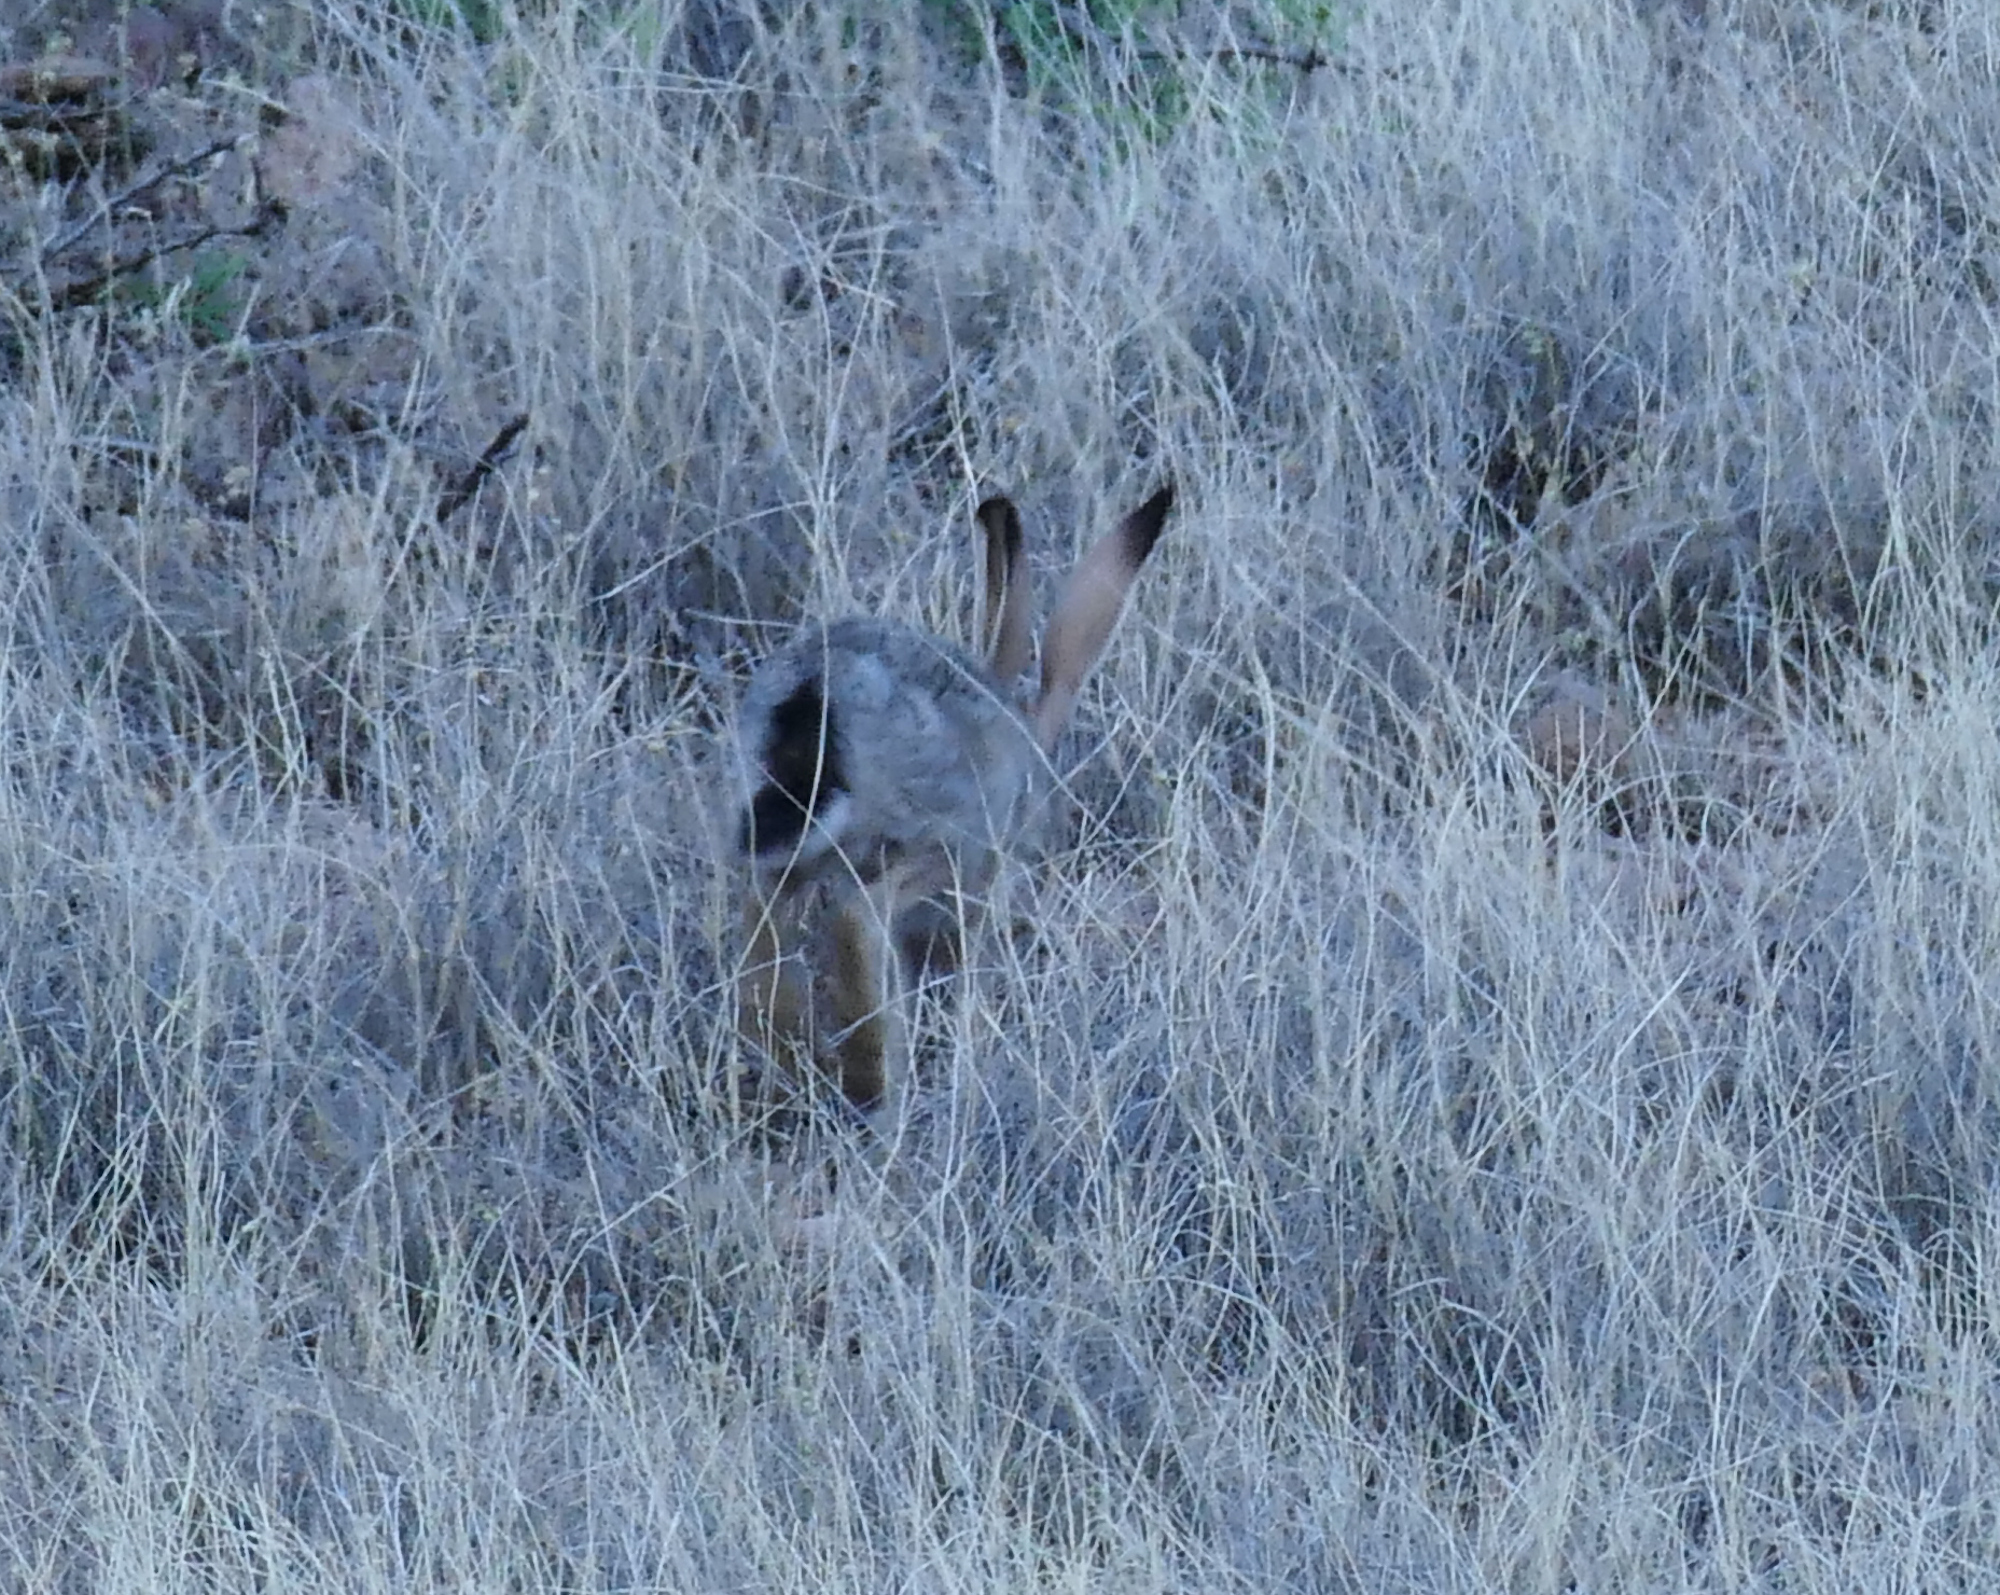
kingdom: Animalia
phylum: Chordata
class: Mammalia
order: Lagomorpha
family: Leporidae
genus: Lepus
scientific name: Lepus californicus
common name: Black-tailed jackrabbit
